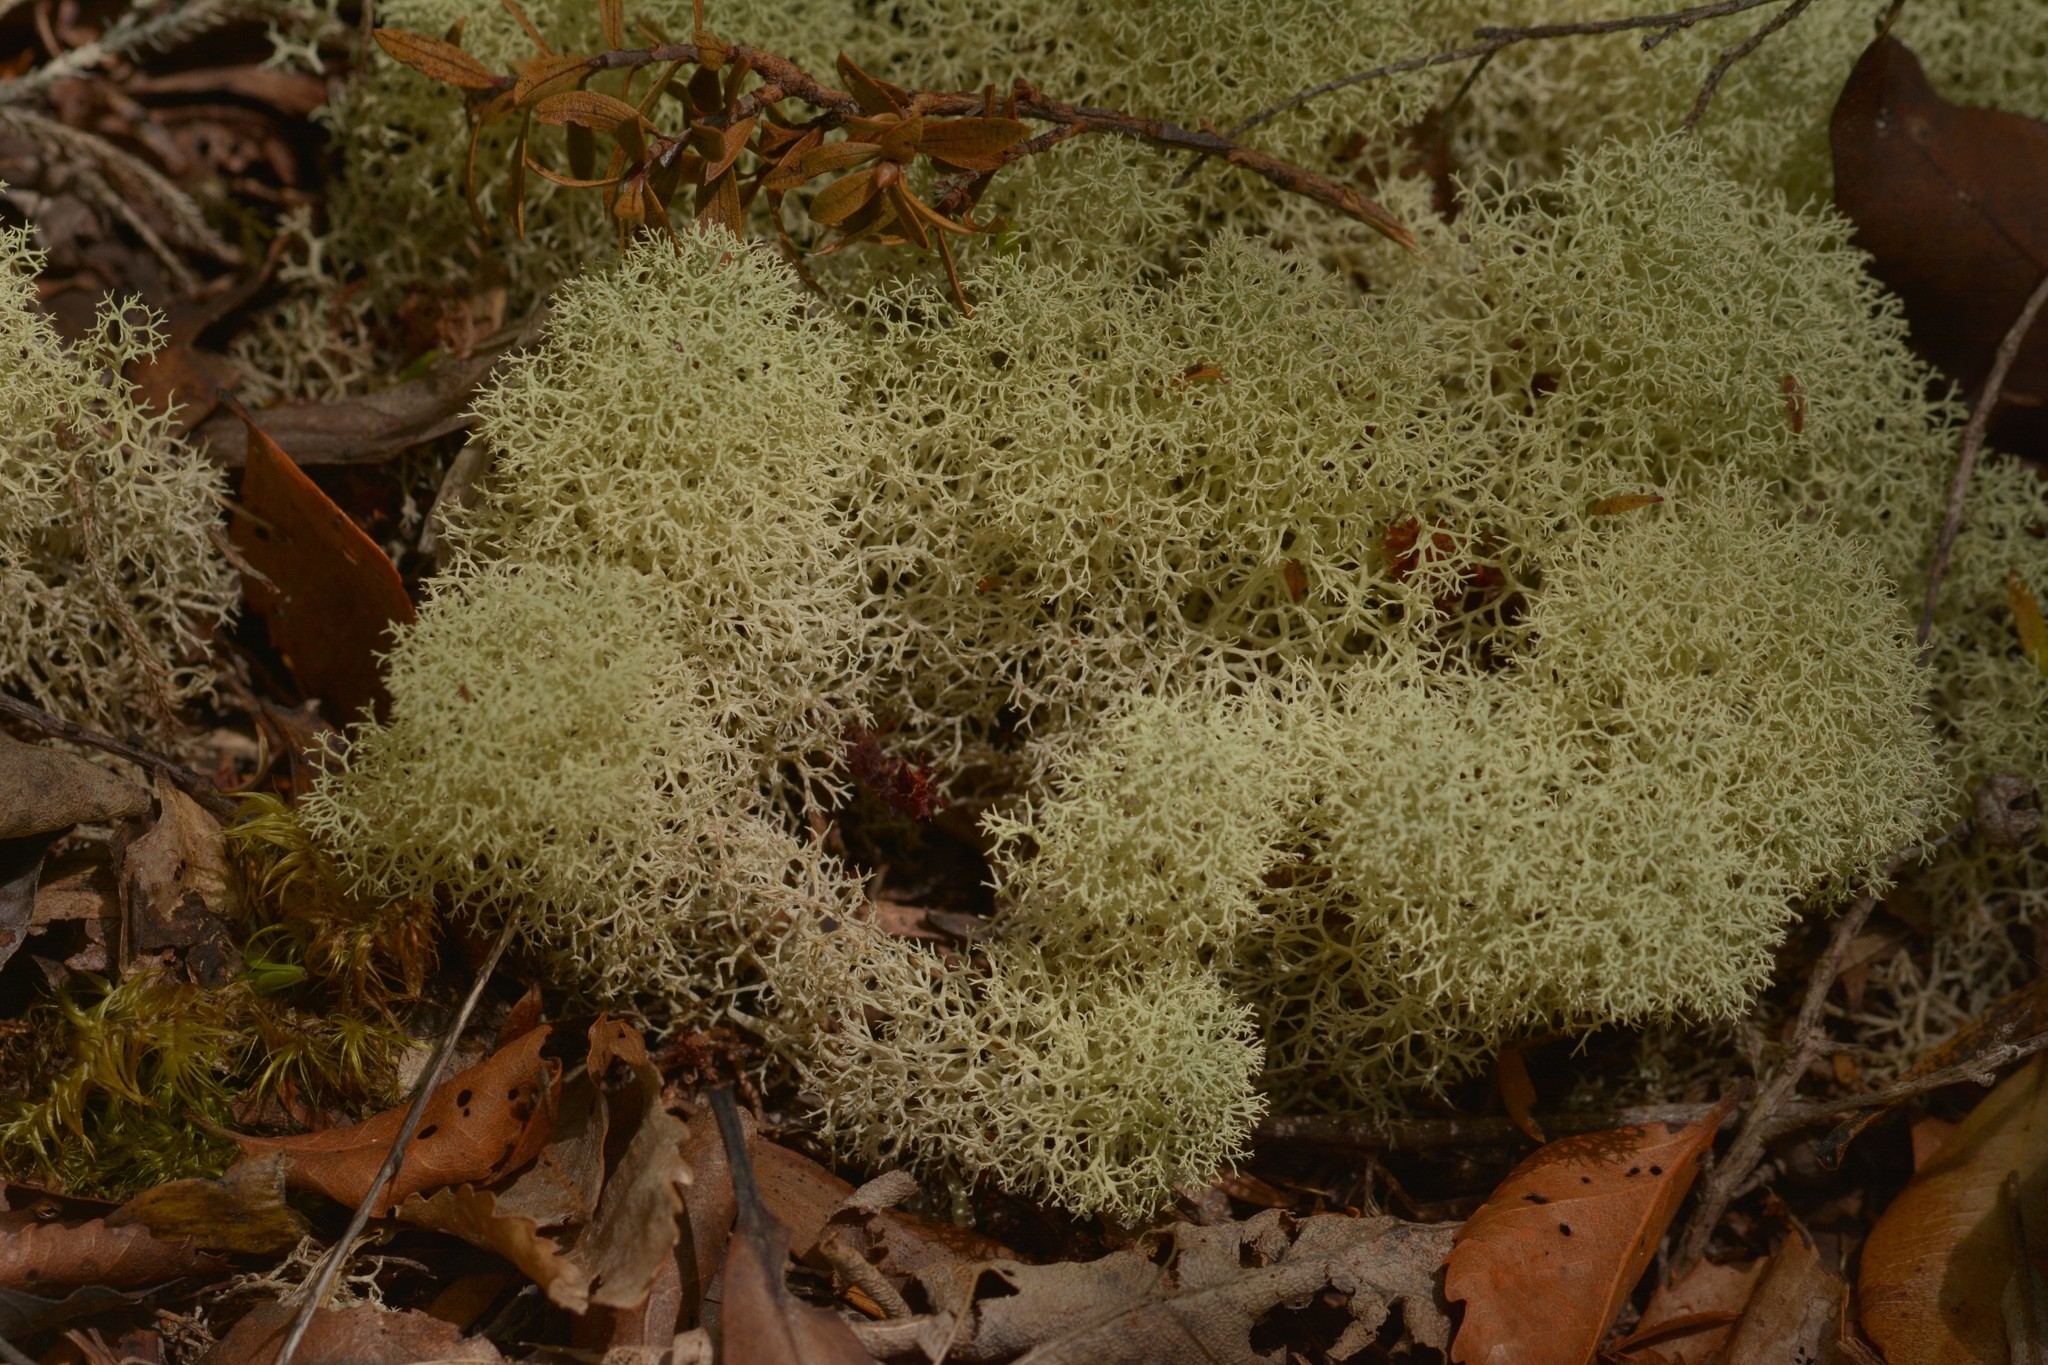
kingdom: Fungi
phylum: Ascomycota
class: Lecanoromycetes
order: Lecanorales
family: Cladoniaceae
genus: Cladonia
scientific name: Cladonia confusa
